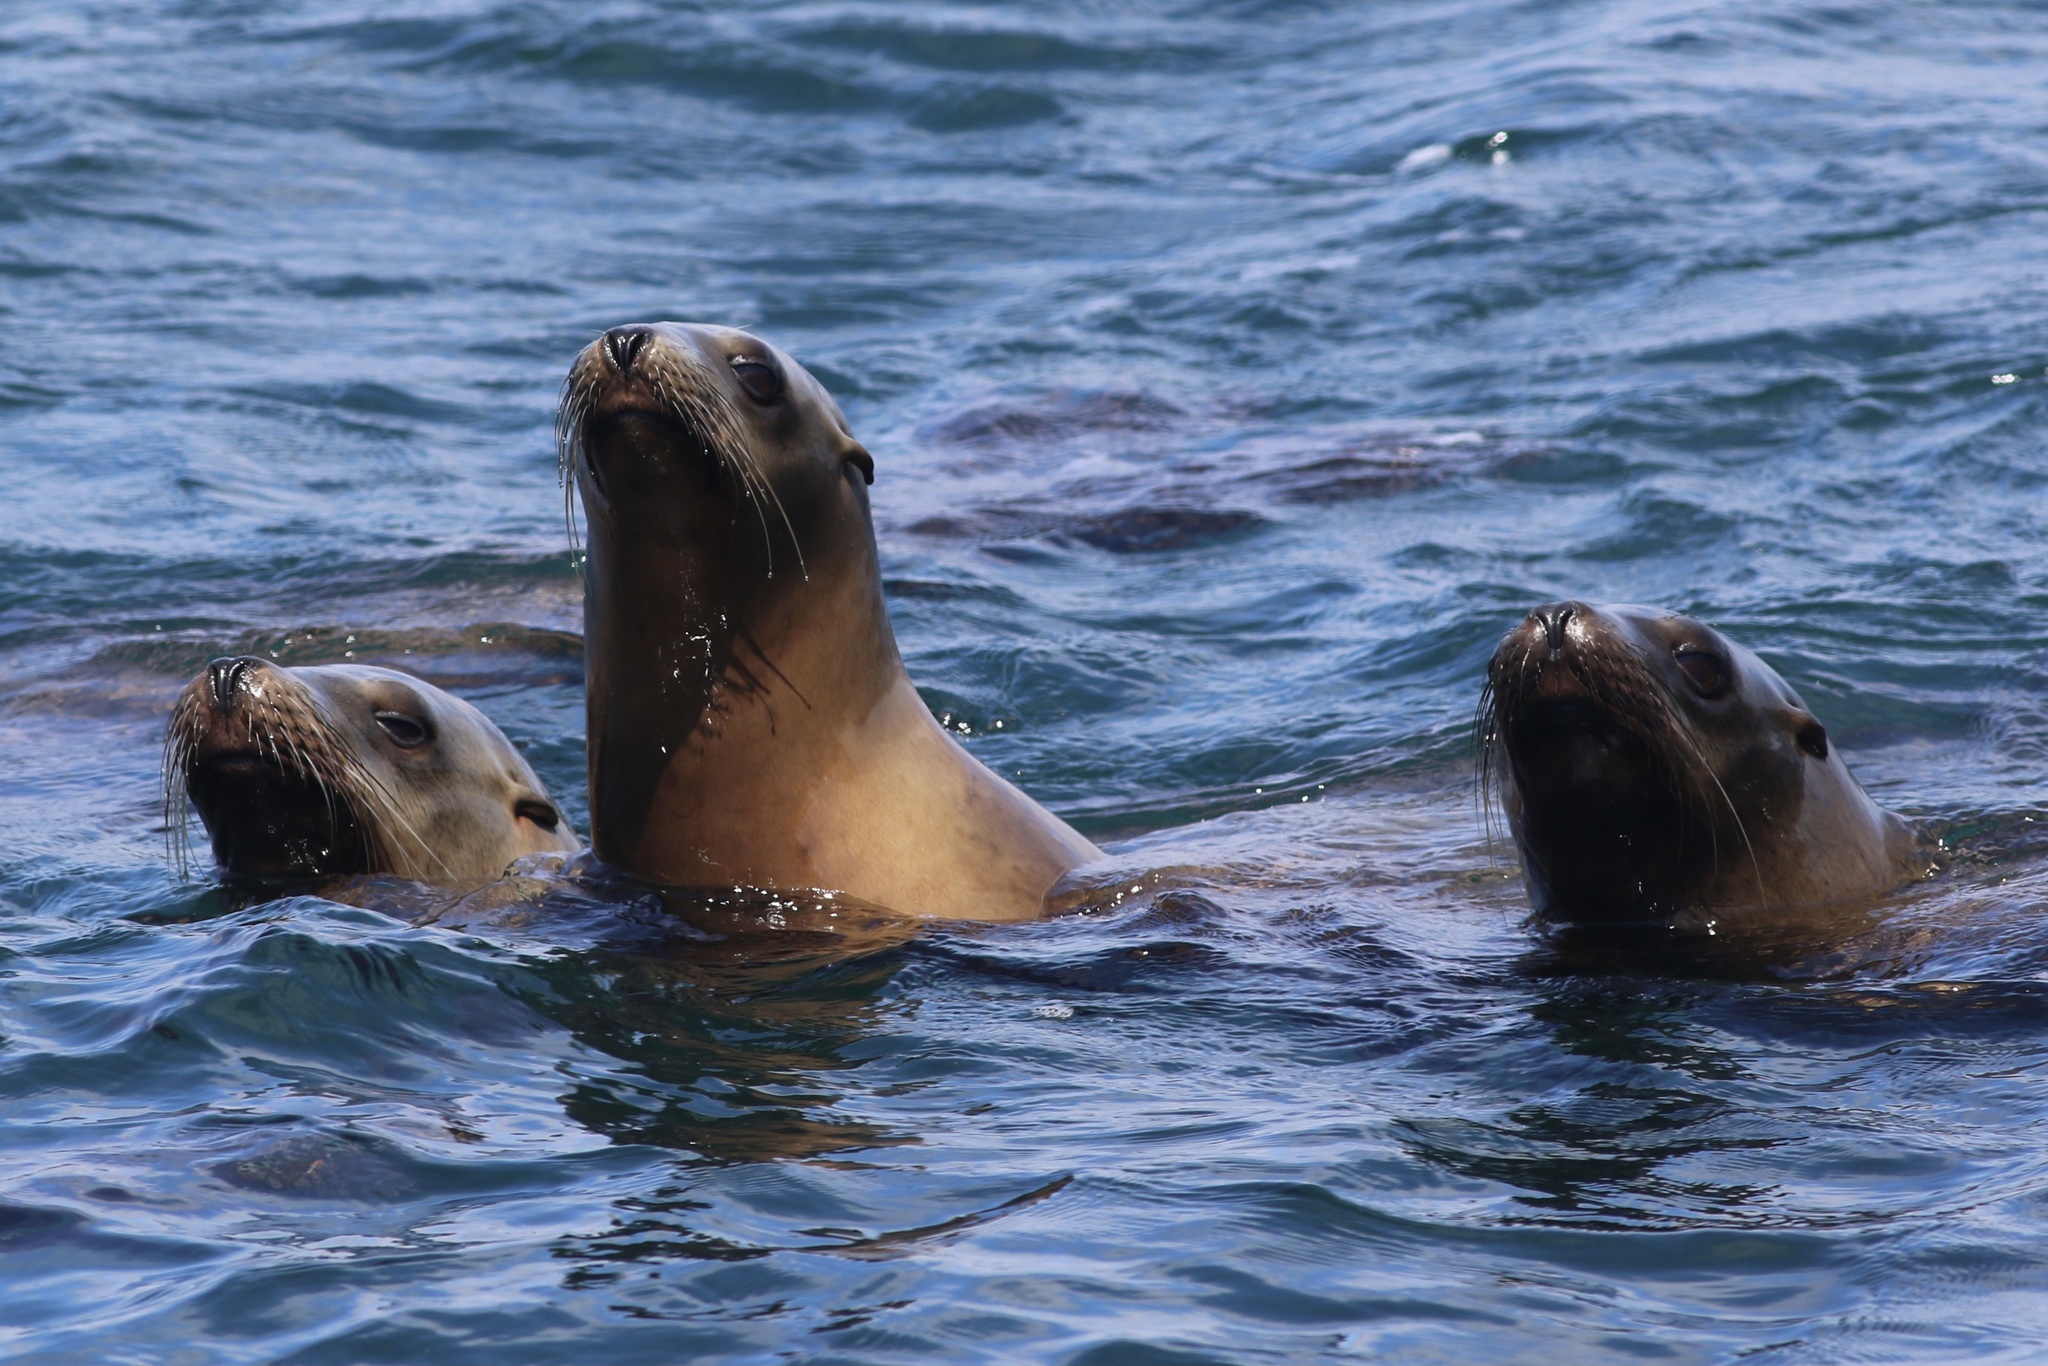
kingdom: Animalia
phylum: Chordata
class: Mammalia
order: Carnivora
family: Otariidae
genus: Zalophus
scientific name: Zalophus californianus
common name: California sea lion
